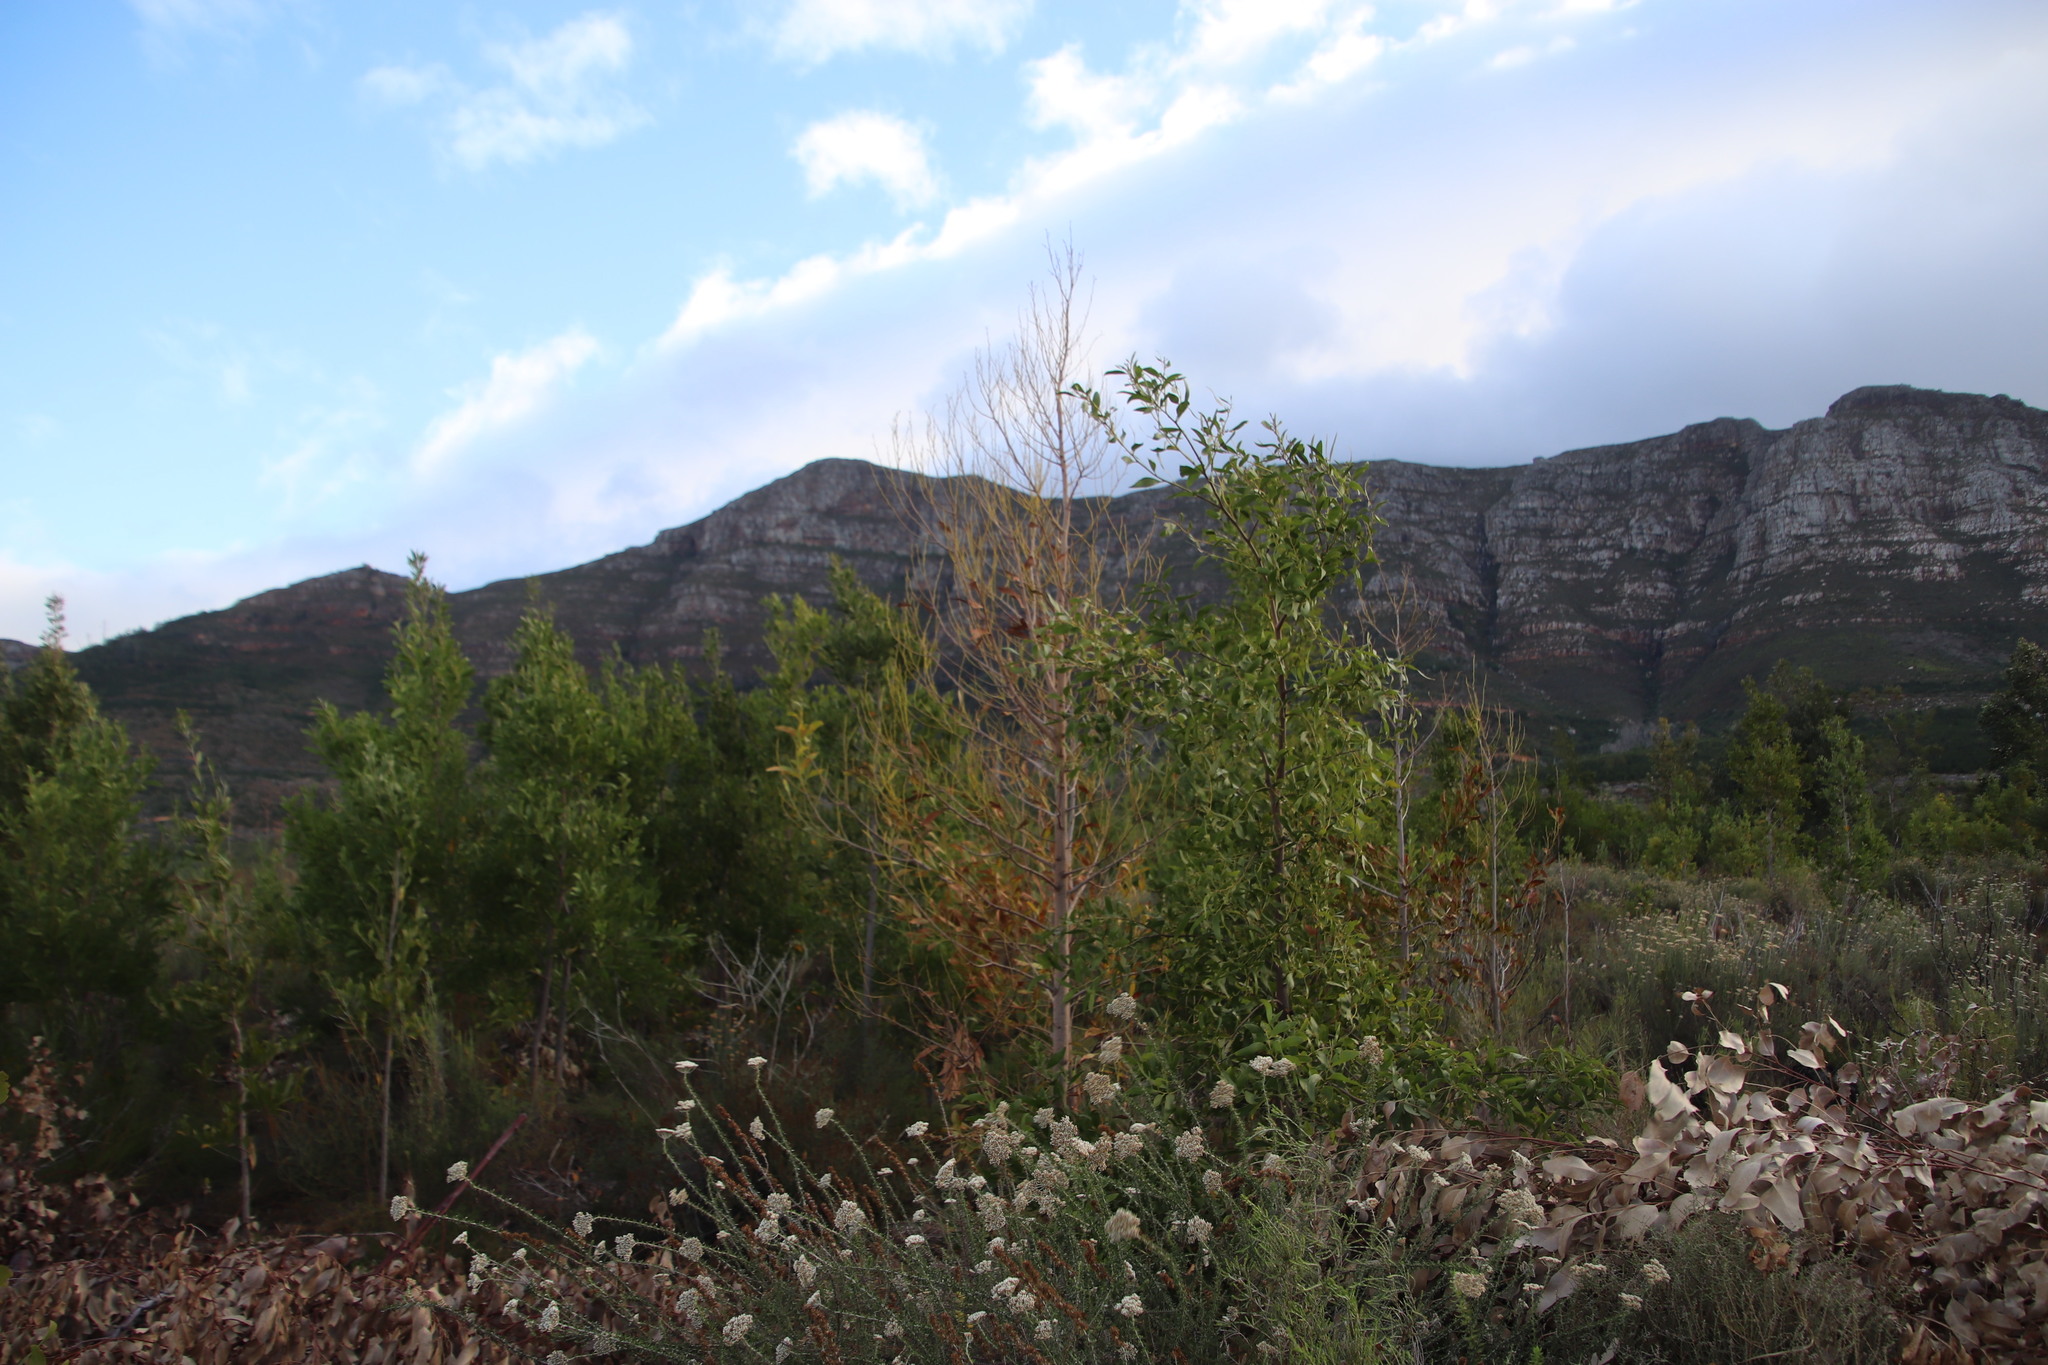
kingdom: Plantae
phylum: Tracheophyta
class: Magnoliopsida
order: Fabales
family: Fabaceae
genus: Acacia
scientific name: Acacia pycnantha
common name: Golden wattle
